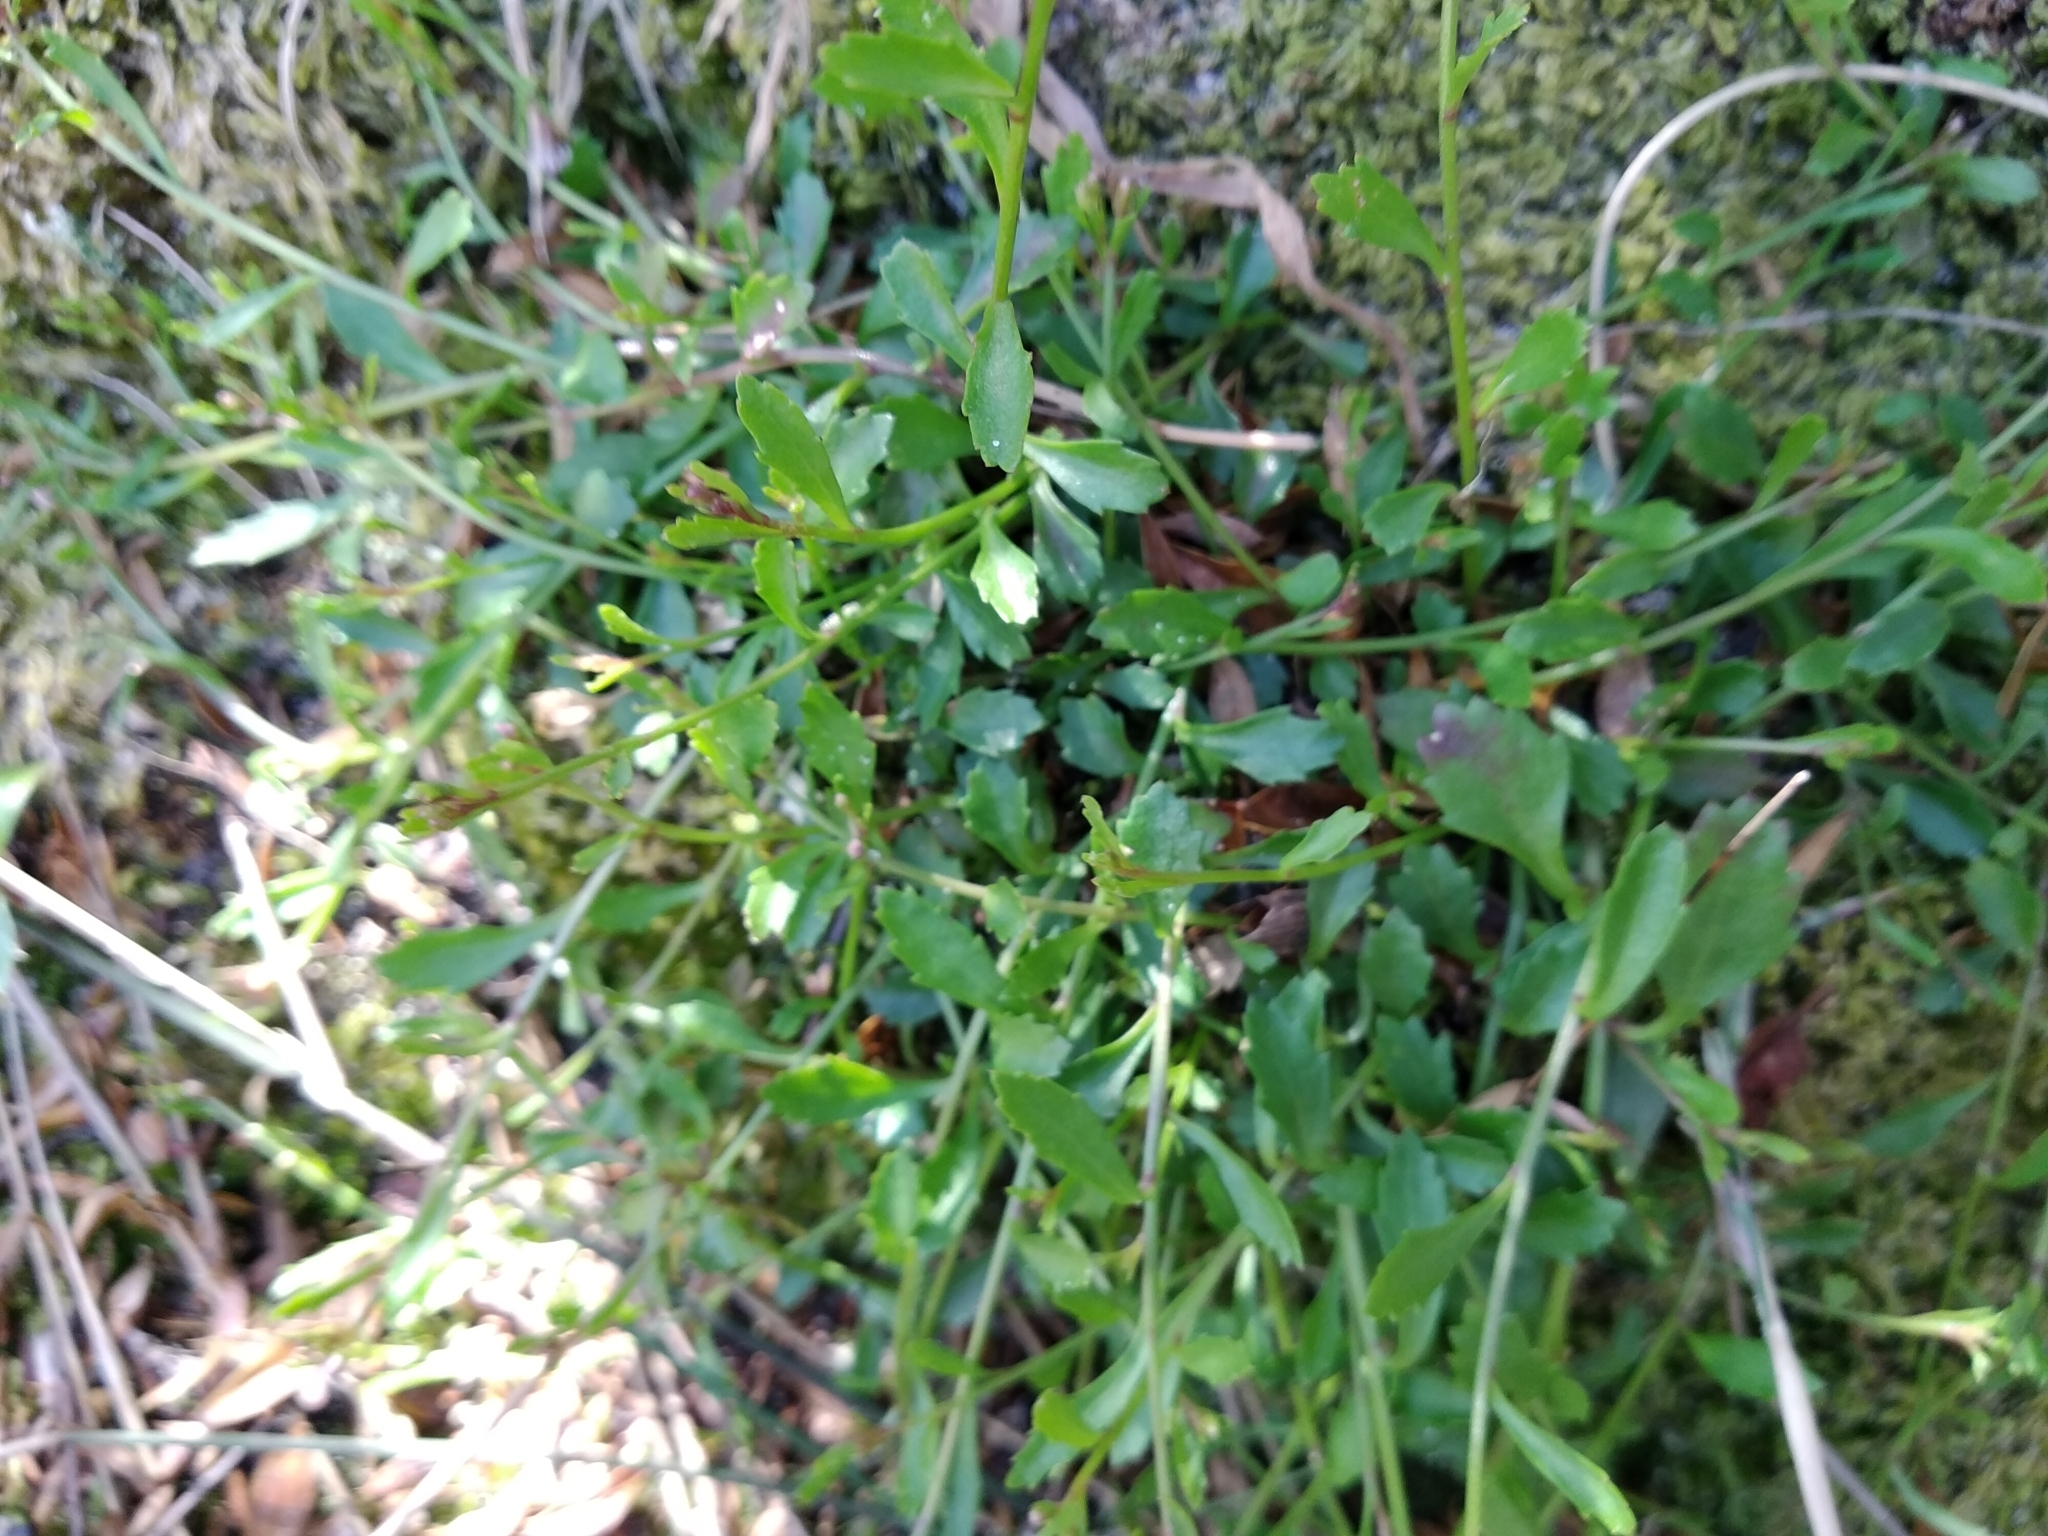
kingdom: Plantae
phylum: Tracheophyta
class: Magnoliopsida
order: Asterales
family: Campanulaceae
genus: Lobelia
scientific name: Lobelia eckloniana
